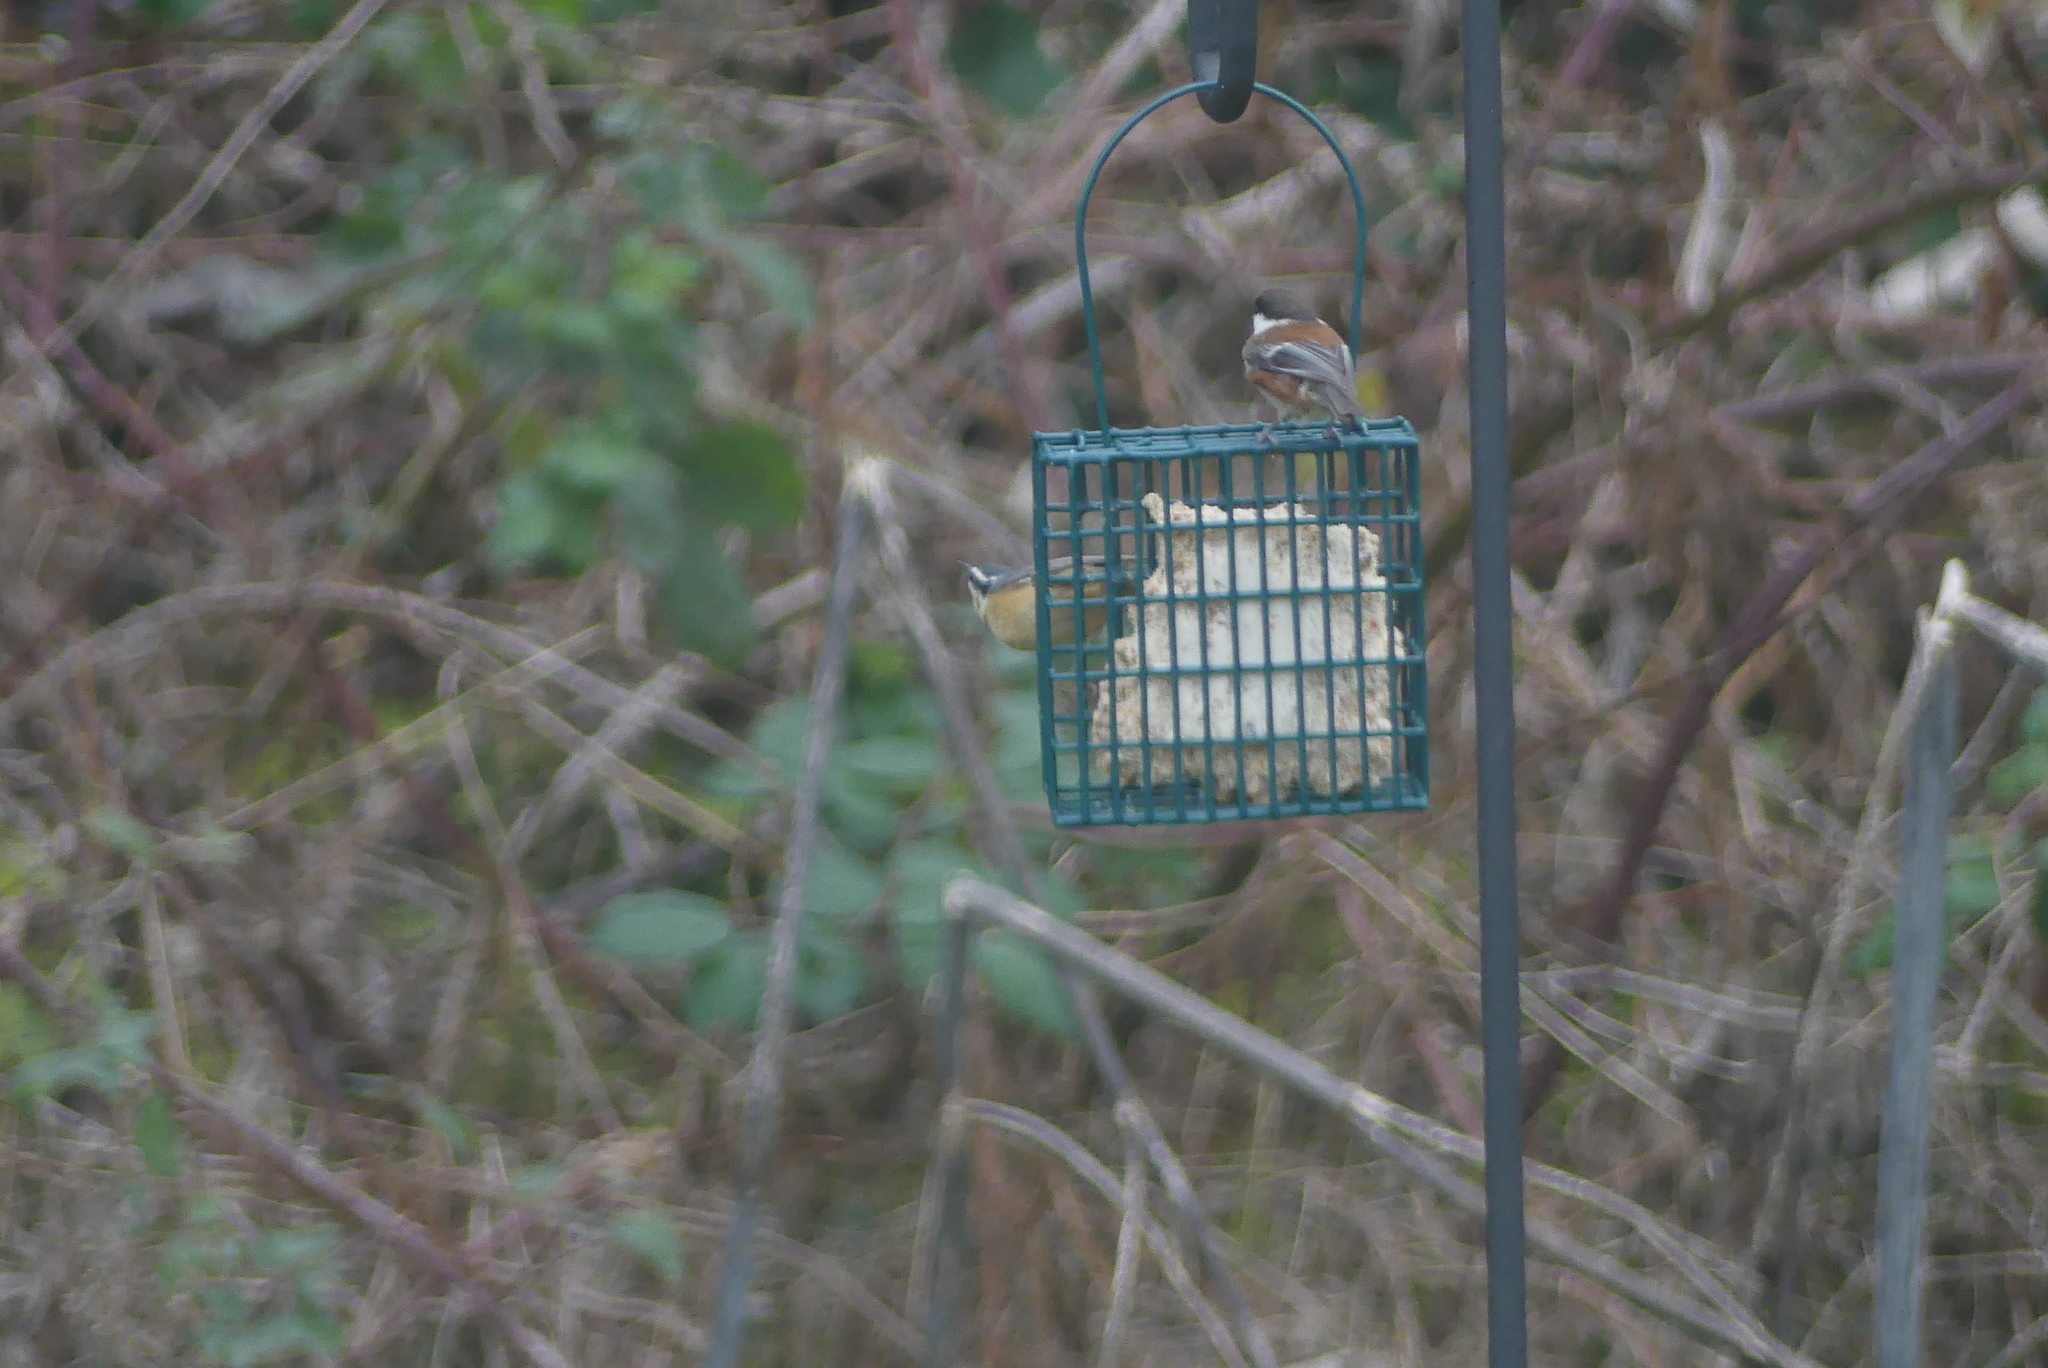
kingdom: Animalia
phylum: Chordata
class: Aves
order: Passeriformes
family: Sittidae
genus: Sitta
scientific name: Sitta canadensis
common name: Red-breasted nuthatch
